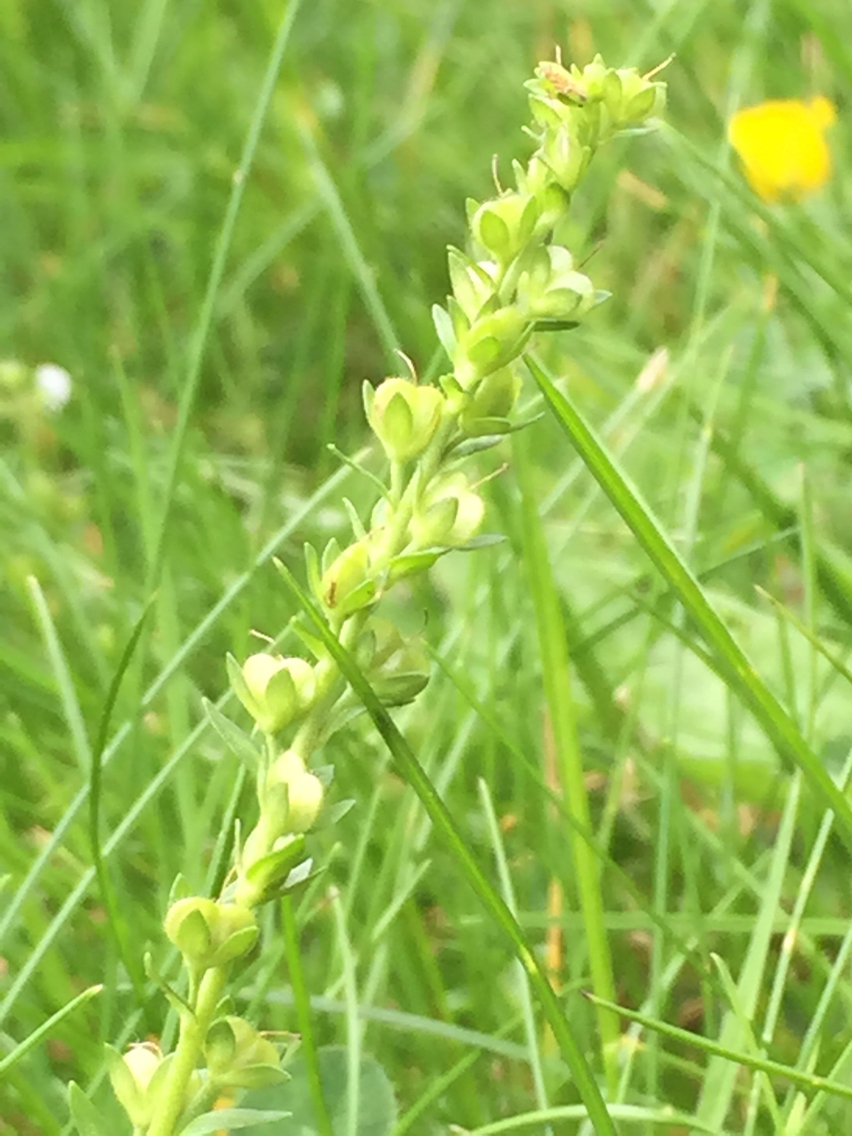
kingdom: Plantae
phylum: Tracheophyta
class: Magnoliopsida
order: Lamiales
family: Plantaginaceae
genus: Veronica
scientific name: Veronica serpyllifolia
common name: Thyme-leaved speedwell
